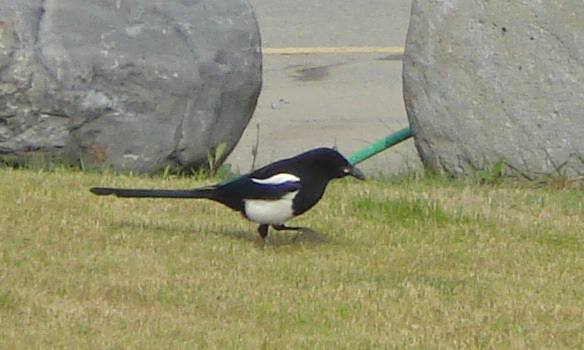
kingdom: Animalia
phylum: Chordata
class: Aves
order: Passeriformes
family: Corvidae
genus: Pica
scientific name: Pica hudsonia
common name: Black-billed magpie
